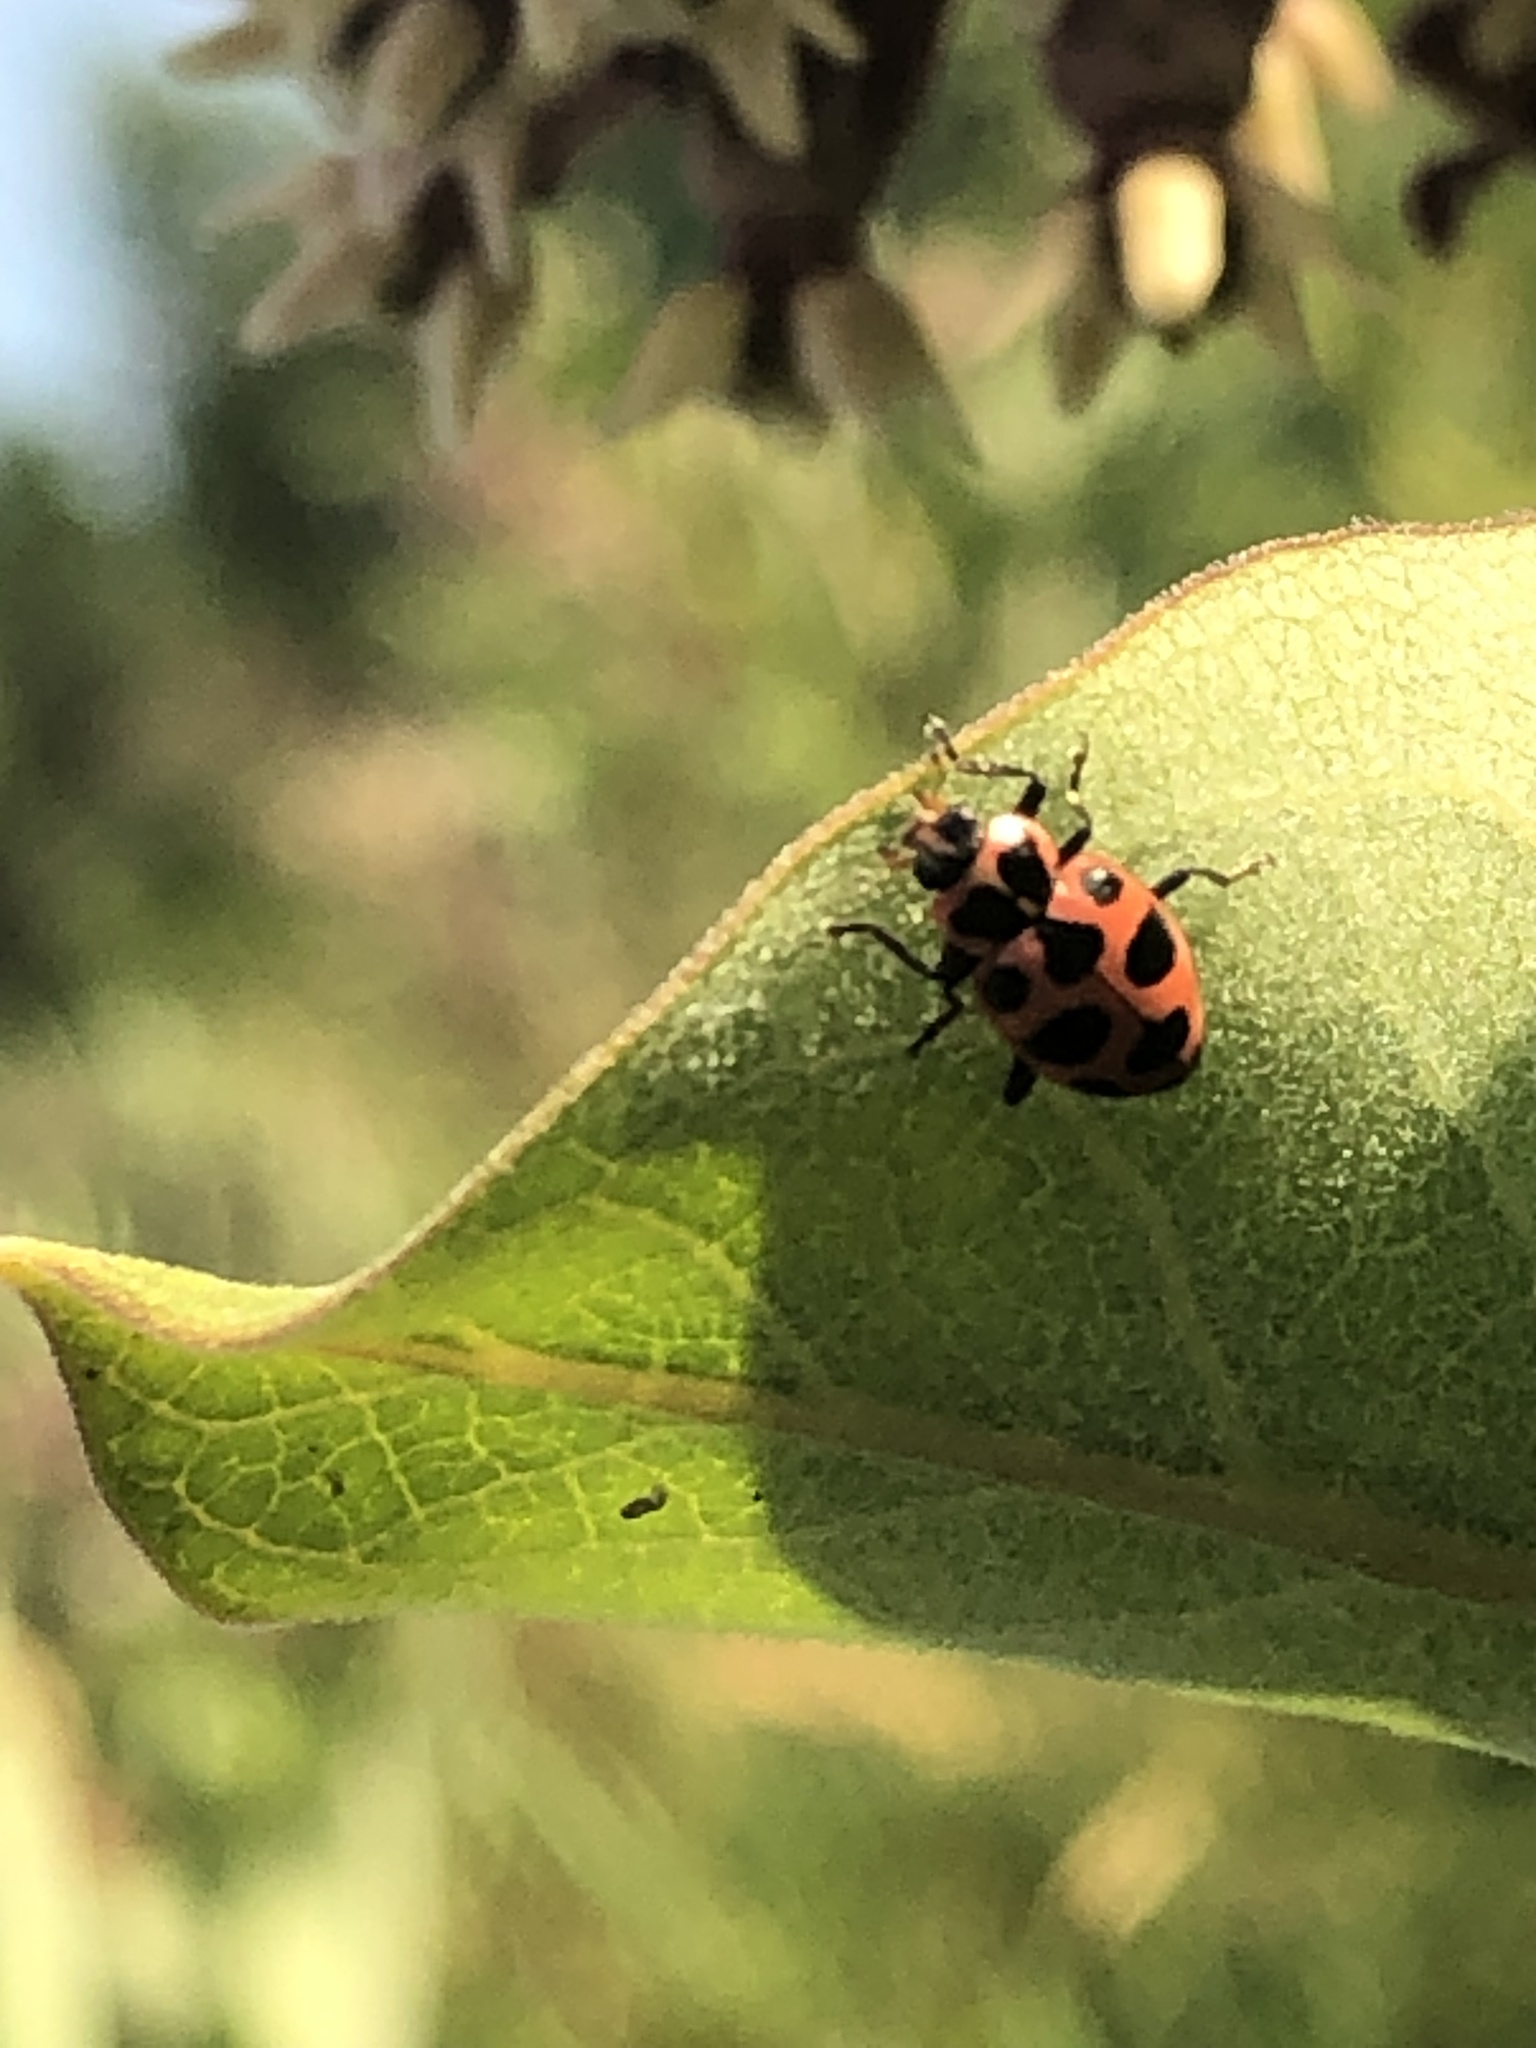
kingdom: Animalia
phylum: Arthropoda
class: Insecta
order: Coleoptera
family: Coccinellidae
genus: Coleomegilla
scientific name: Coleomegilla maculata
